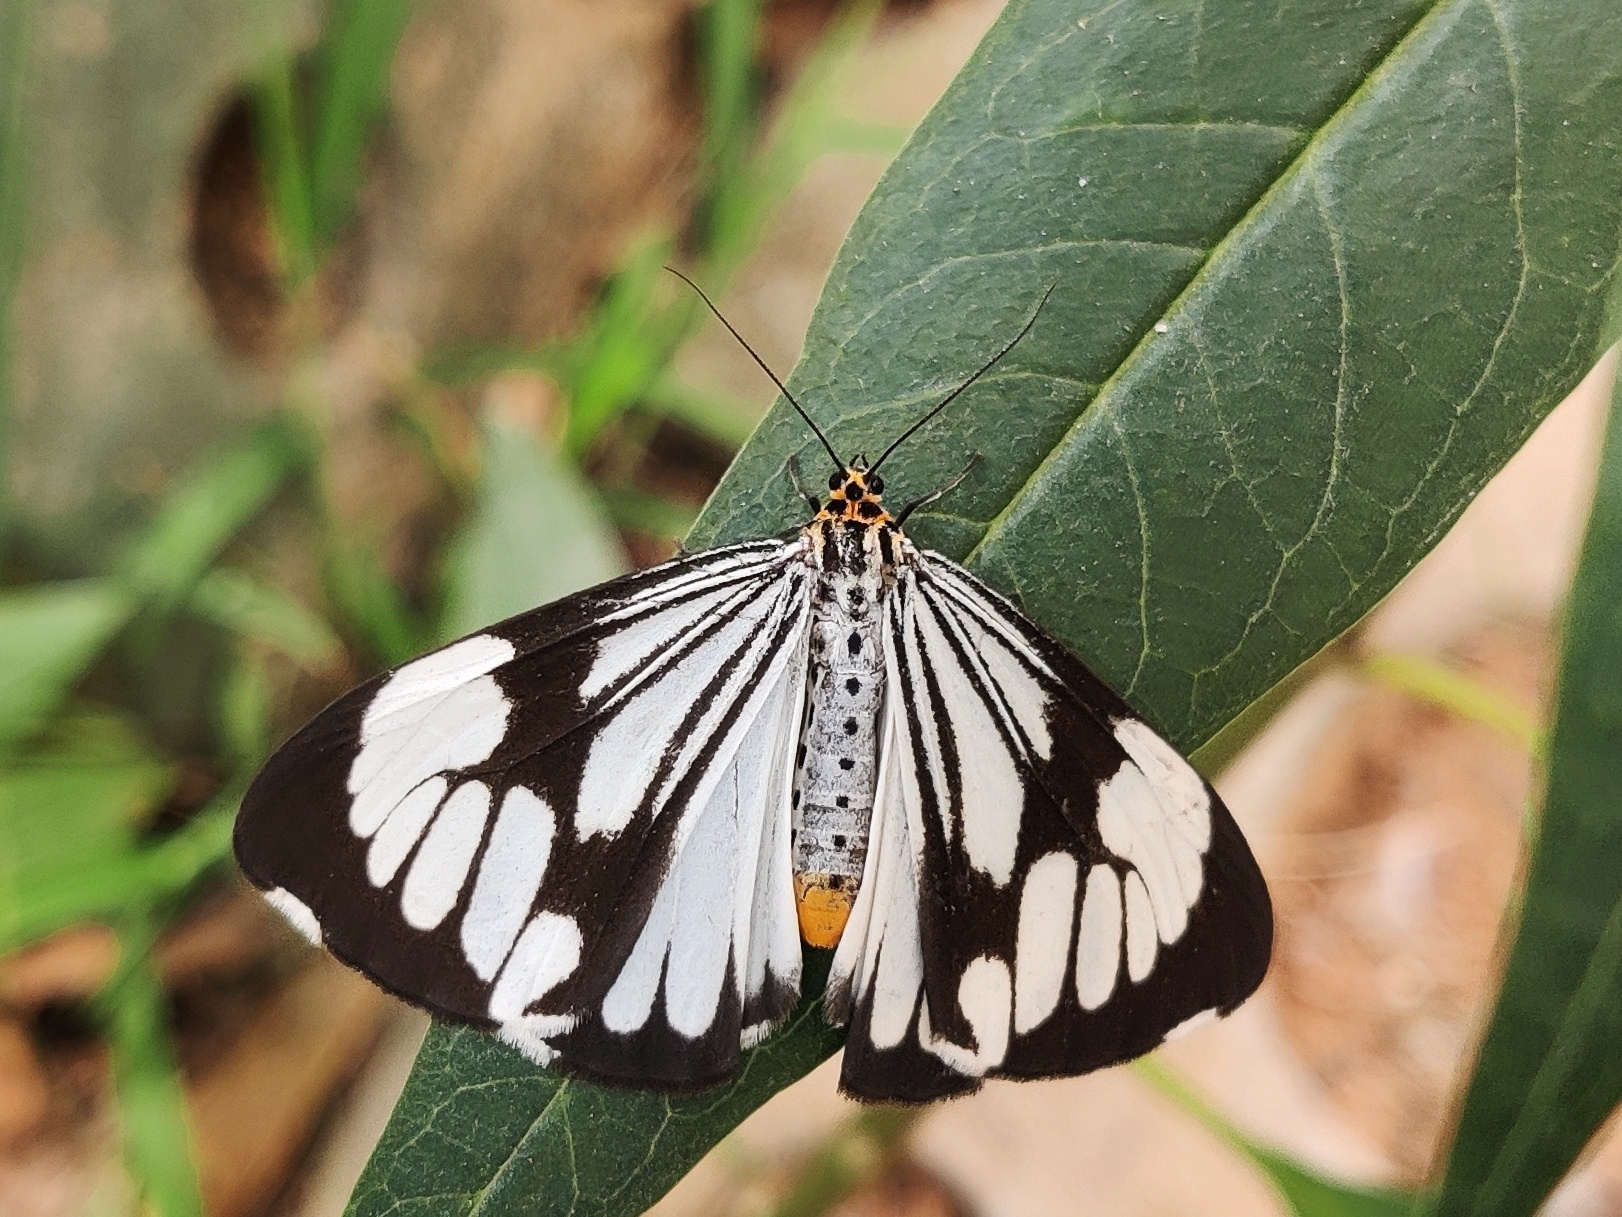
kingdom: Animalia
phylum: Arthropoda
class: Insecta
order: Lepidoptera
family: Erebidae
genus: Nyctemera
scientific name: Nyctemera coleta
